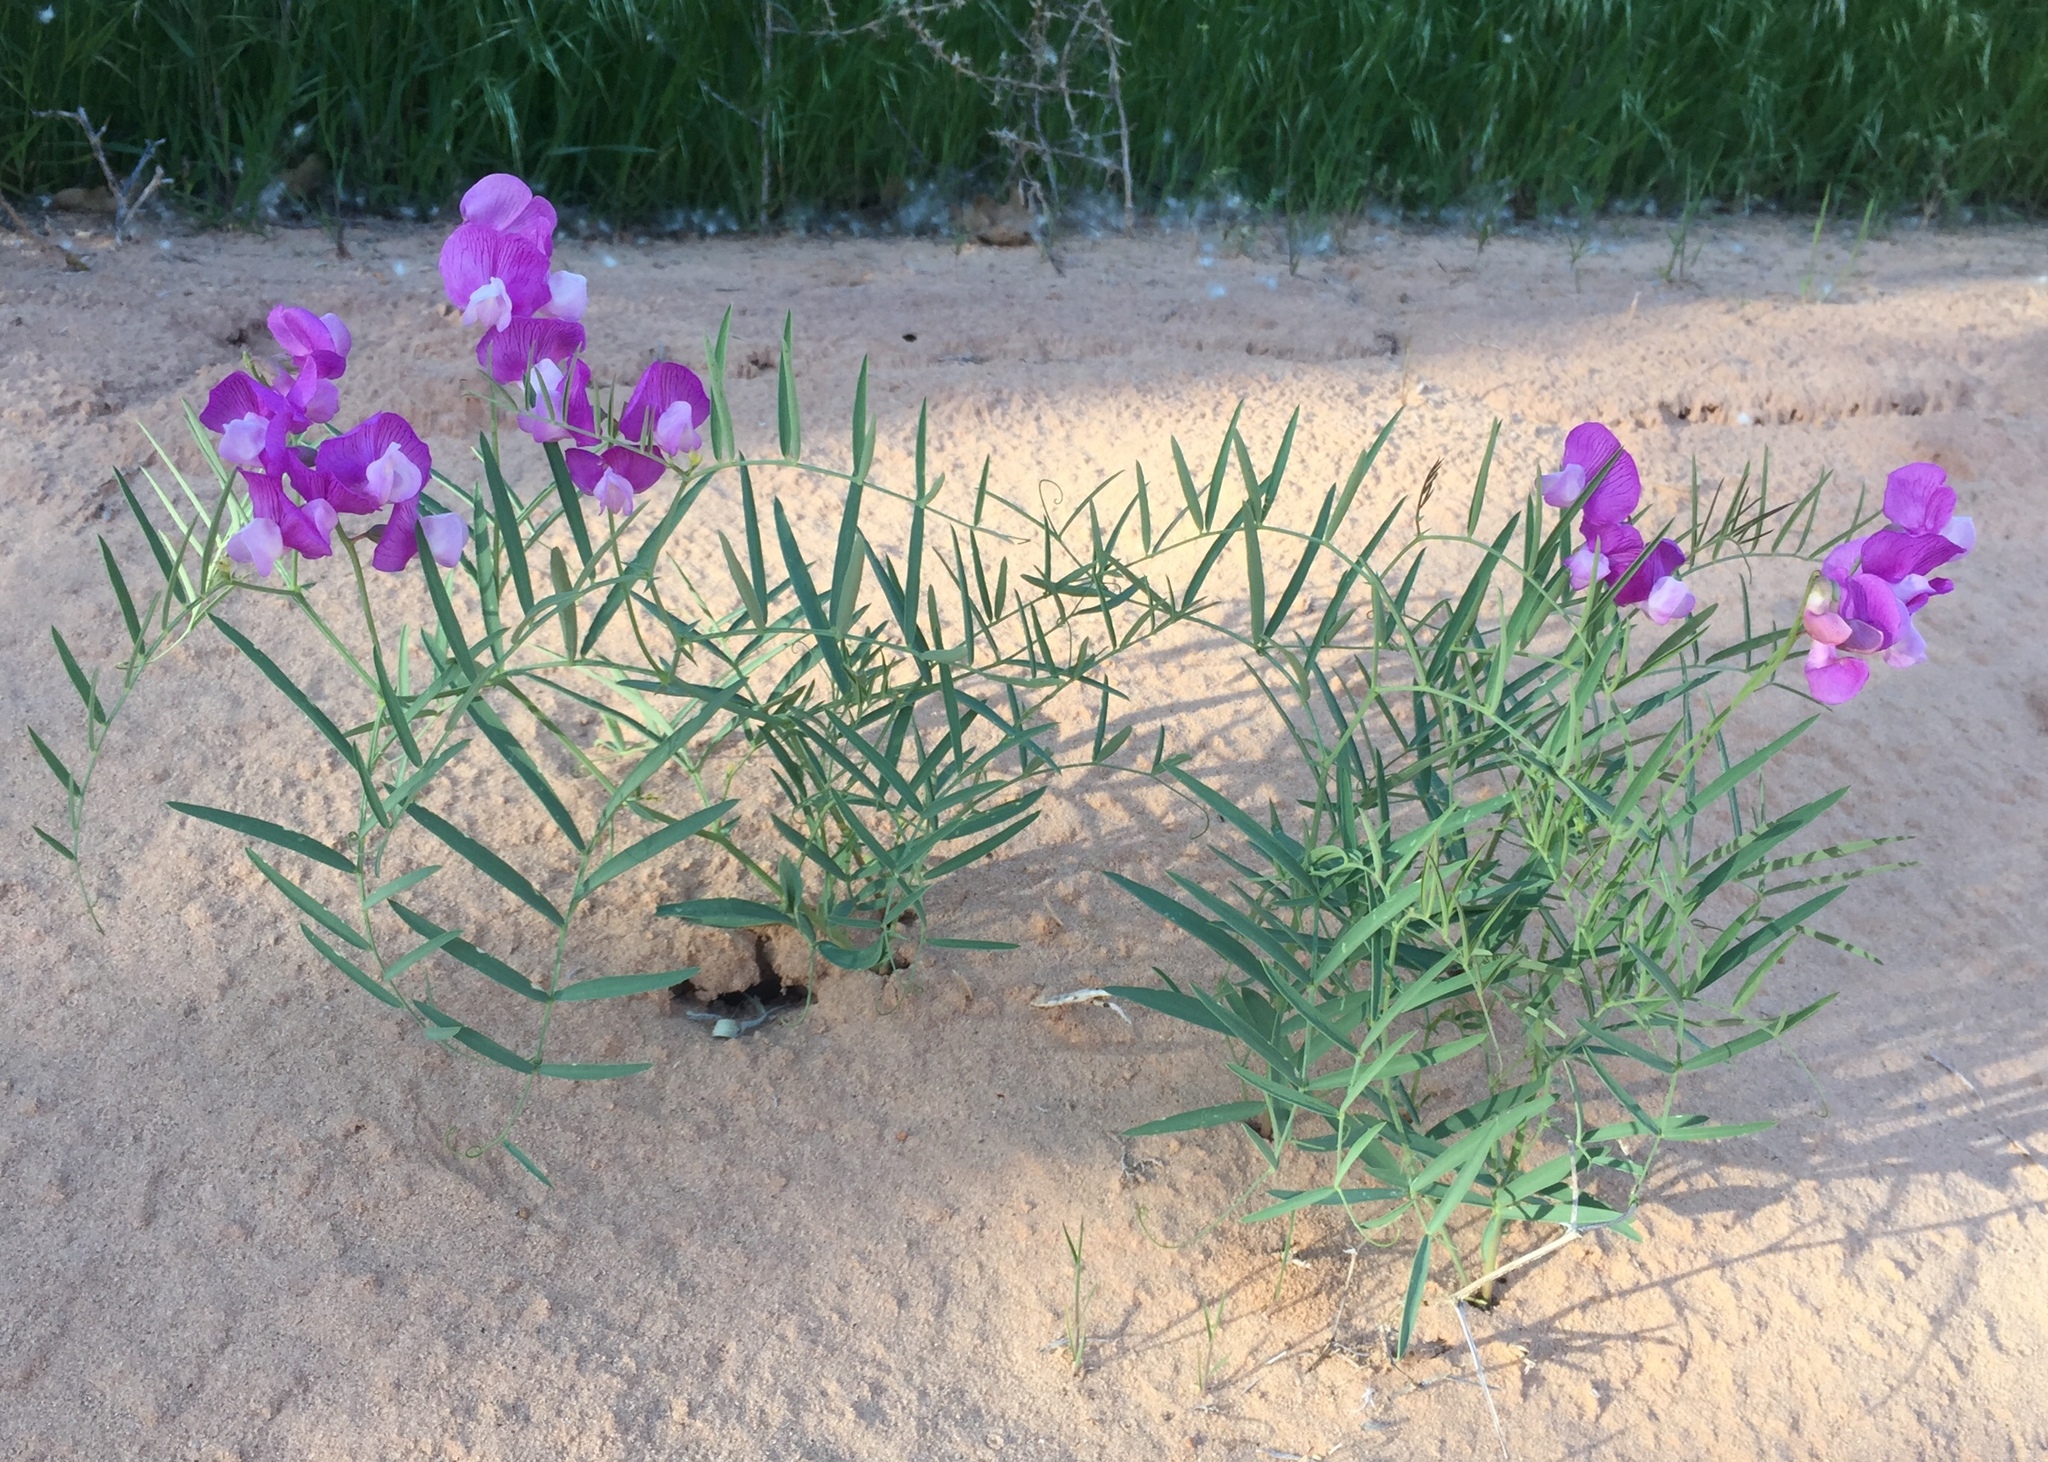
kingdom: Plantae
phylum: Tracheophyta
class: Magnoliopsida
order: Fabales
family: Fabaceae
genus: Lathyrus
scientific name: Lathyrus brachycalyx
